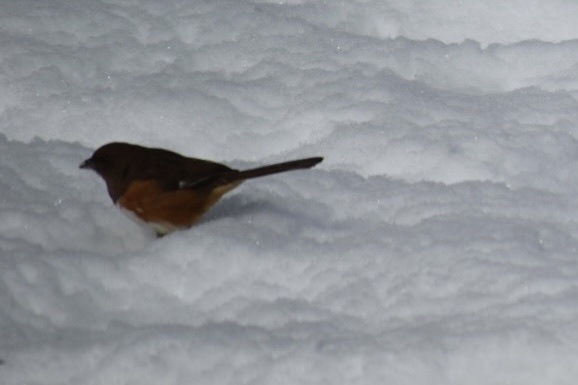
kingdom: Animalia
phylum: Chordata
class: Aves
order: Passeriformes
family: Passerellidae
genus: Pipilo
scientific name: Pipilo erythrophthalmus
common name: Eastern towhee
